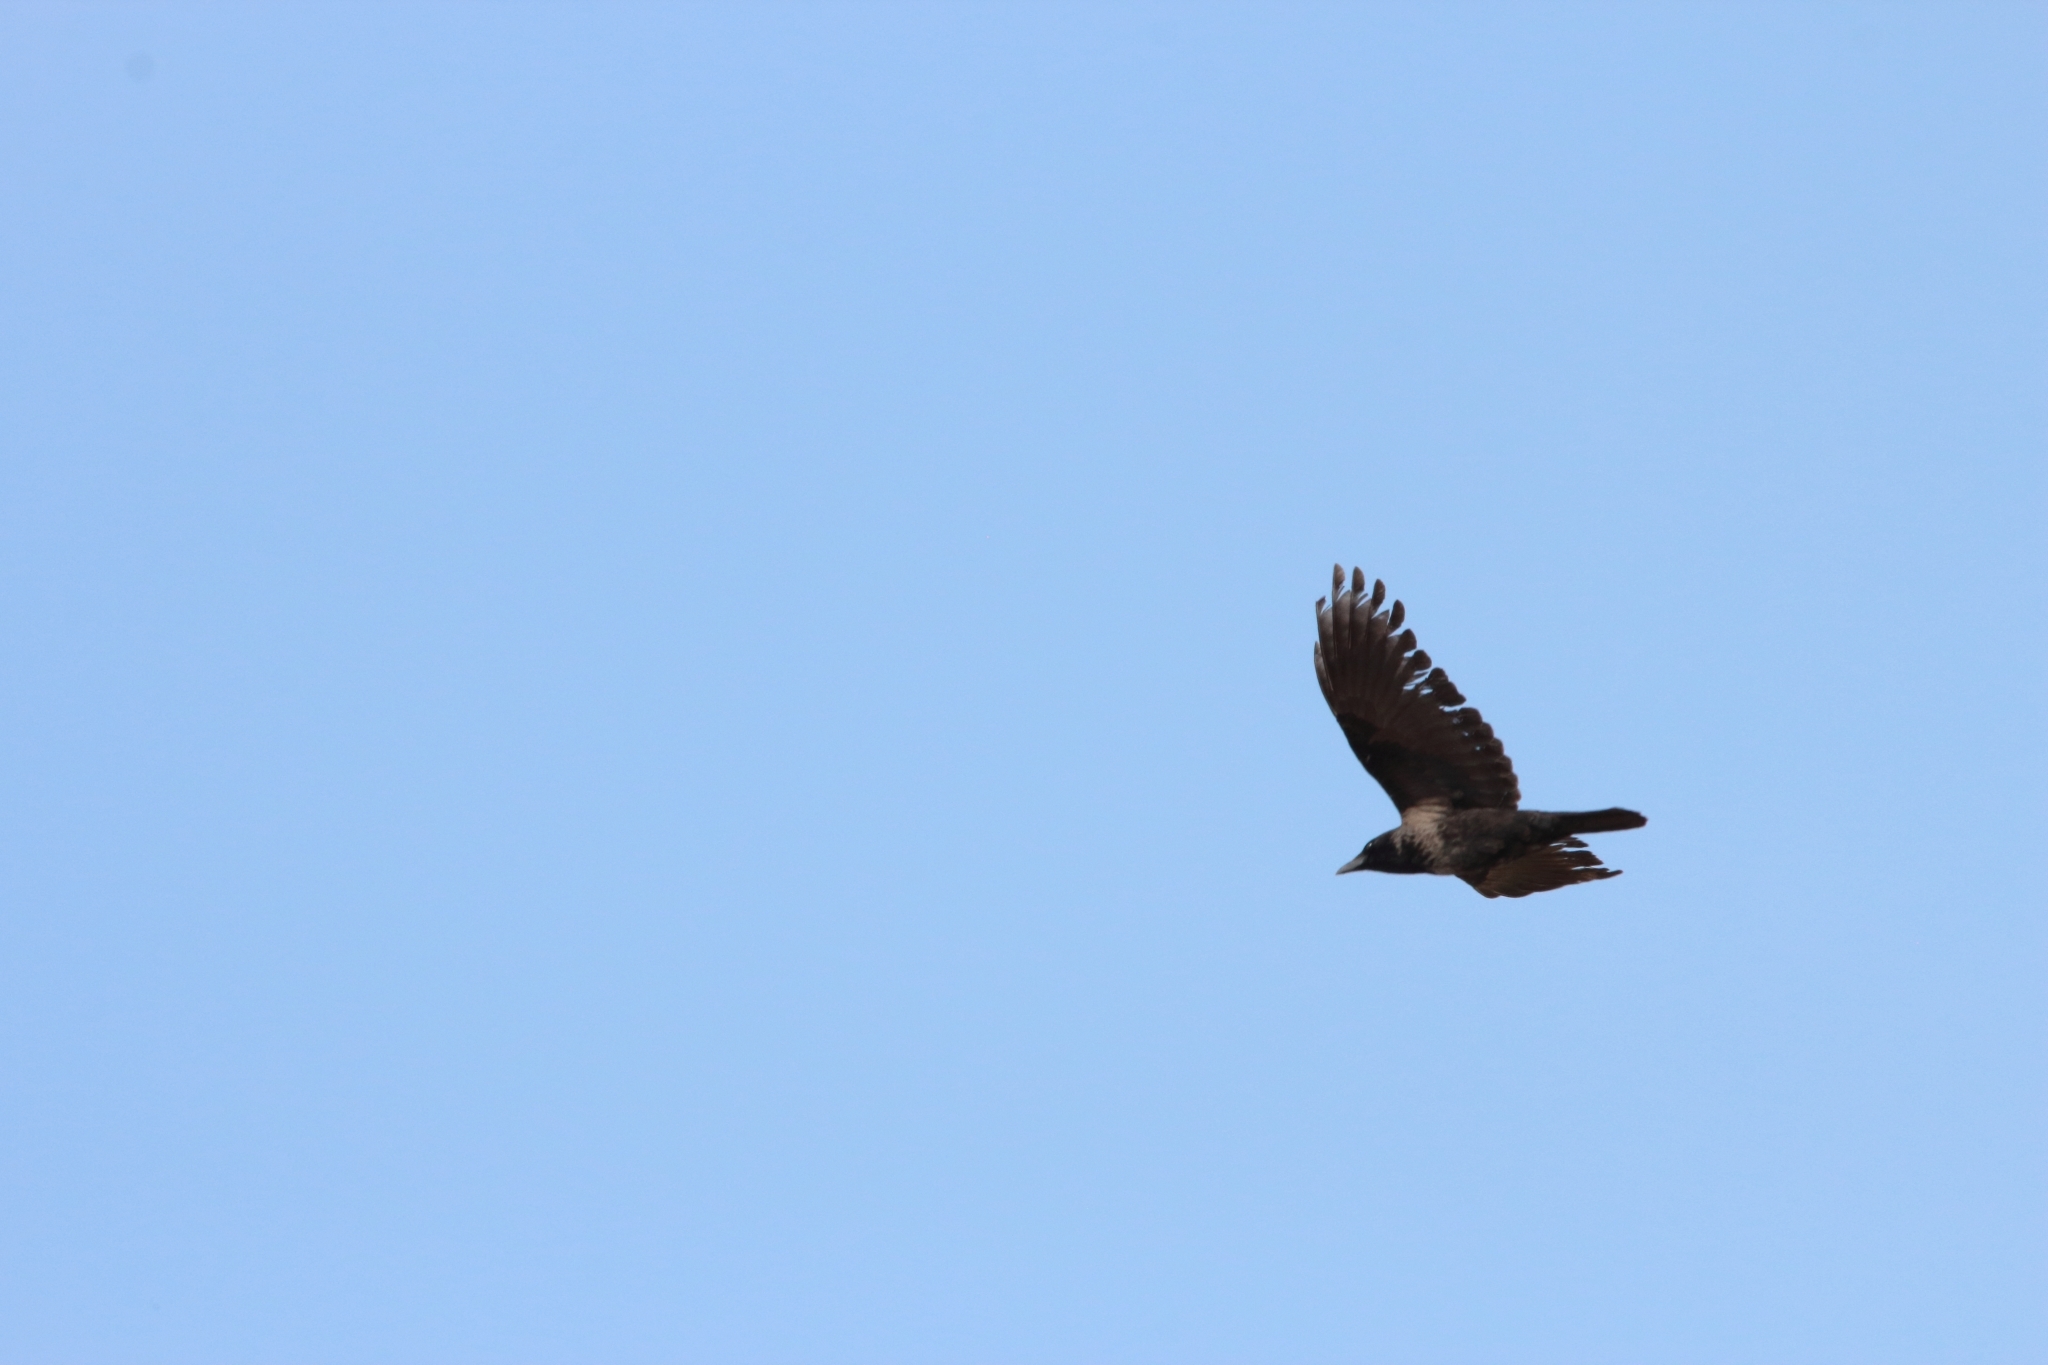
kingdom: Animalia
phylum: Chordata
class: Aves
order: Passeriformes
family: Corvidae
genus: Corvus
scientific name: Corvus
